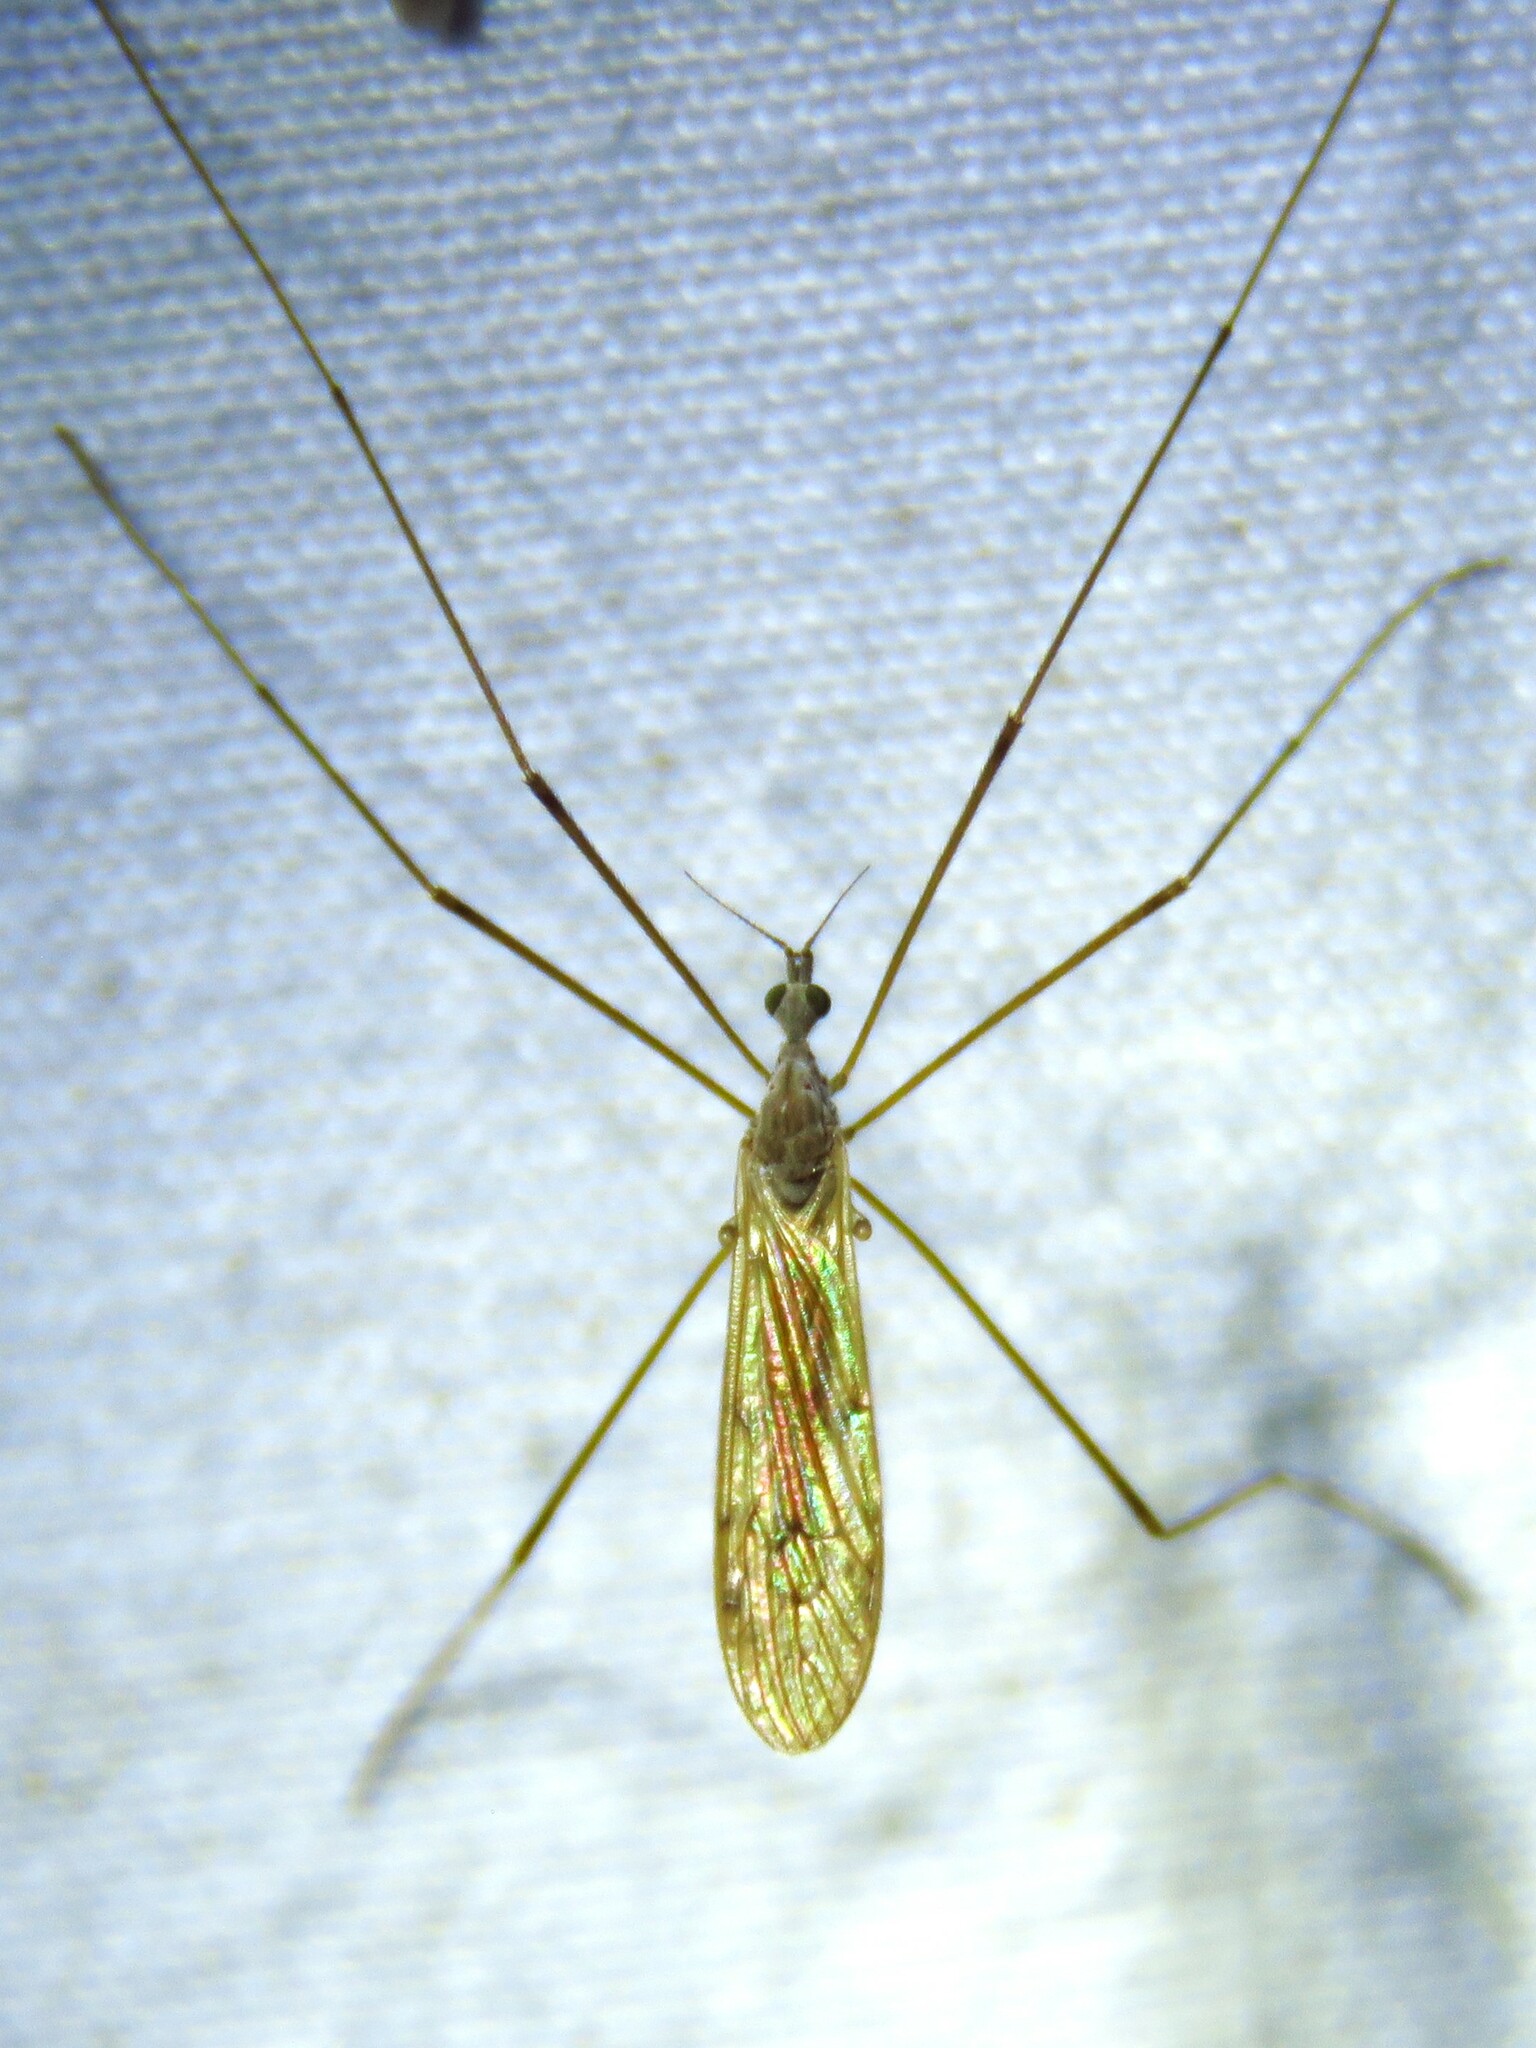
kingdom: Animalia
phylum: Arthropoda
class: Insecta
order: Diptera
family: Limoniidae
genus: Pseudolimnophila
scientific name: Pseudolimnophila luteipennis
